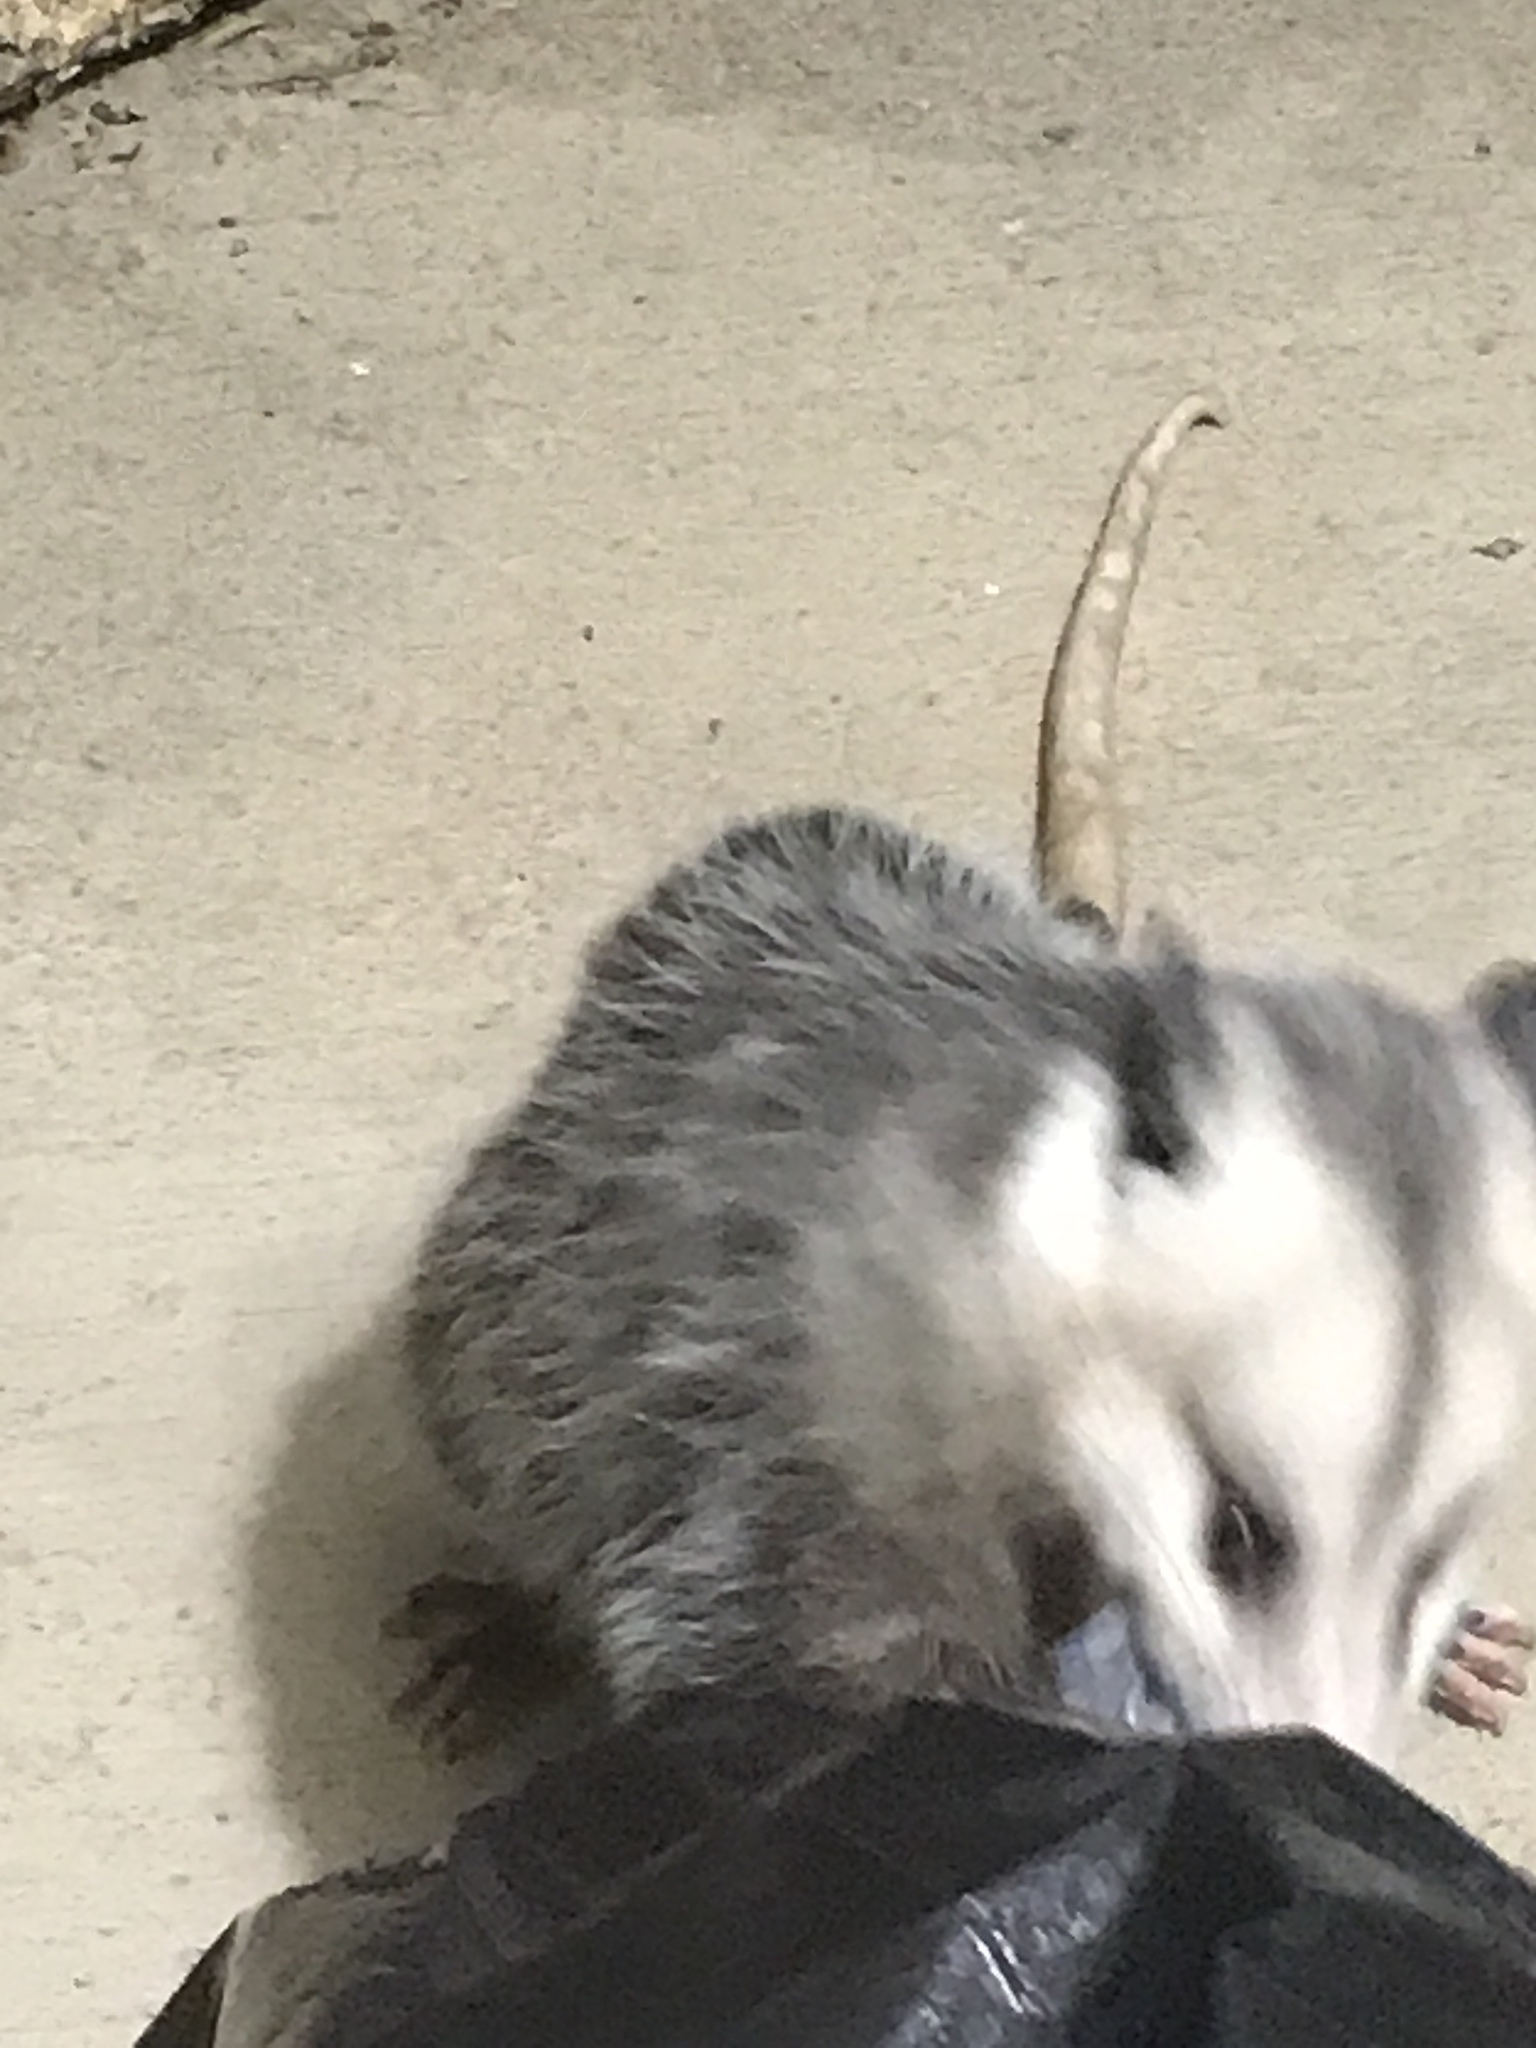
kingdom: Animalia
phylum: Chordata
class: Mammalia
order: Didelphimorphia
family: Didelphidae
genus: Didelphis
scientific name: Didelphis virginiana
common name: Virginia opossum
